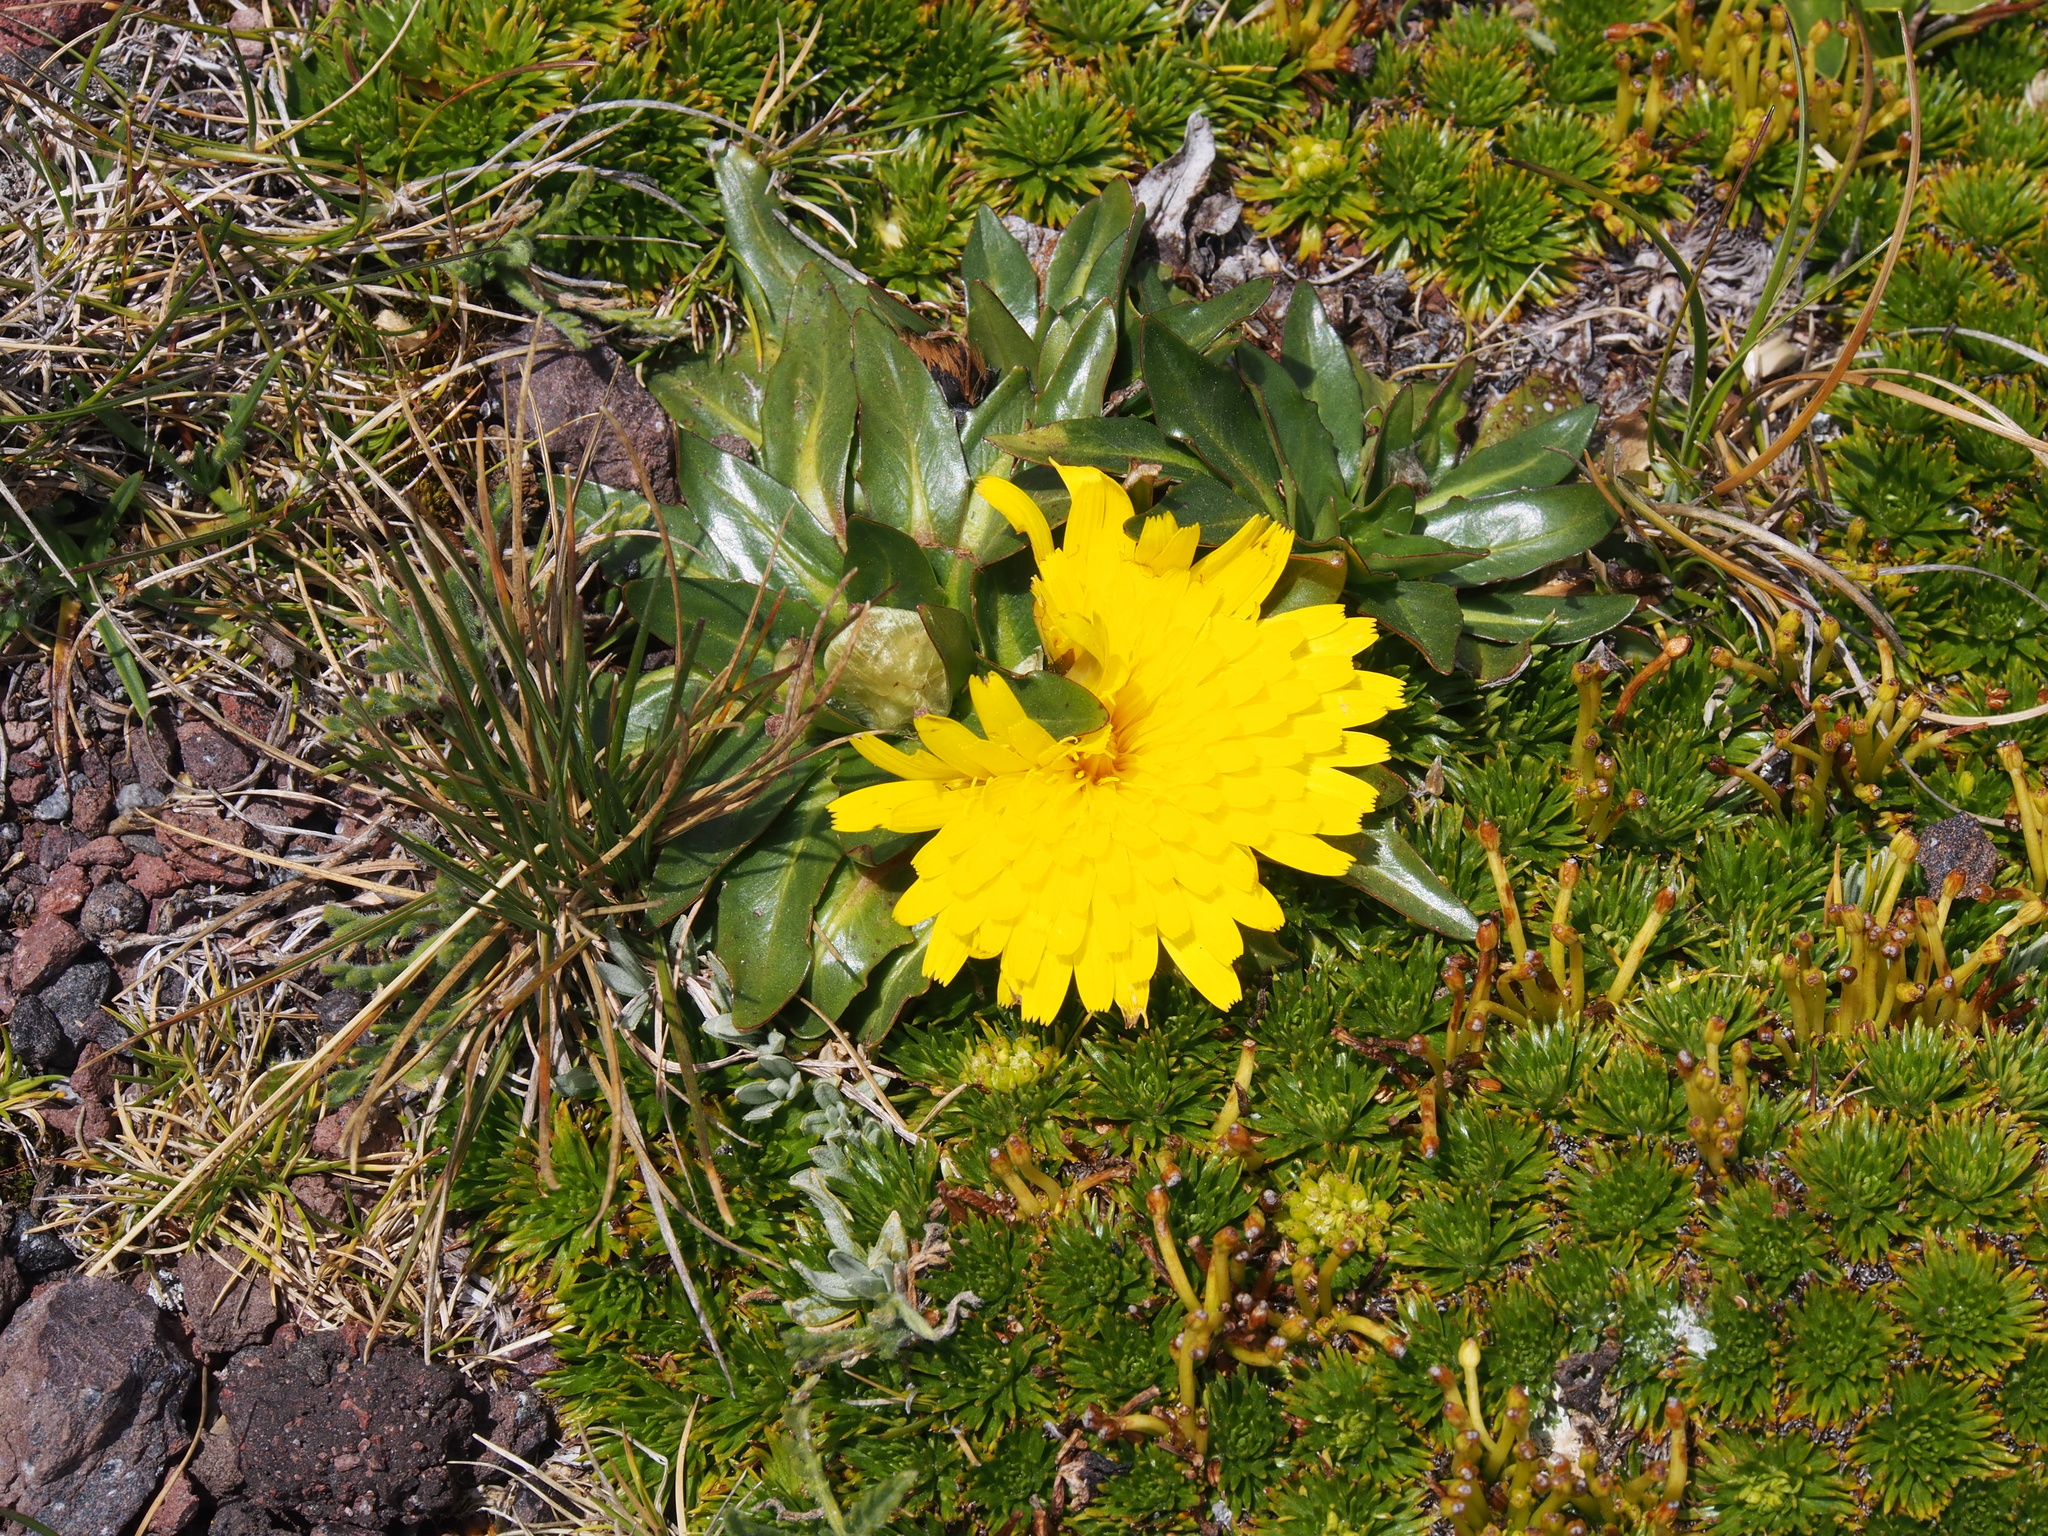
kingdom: Plantae
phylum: Tracheophyta
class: Magnoliopsida
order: Asterales
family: Asteraceae
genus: Hypochaeris
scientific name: Hypochaeris sessiliflora
